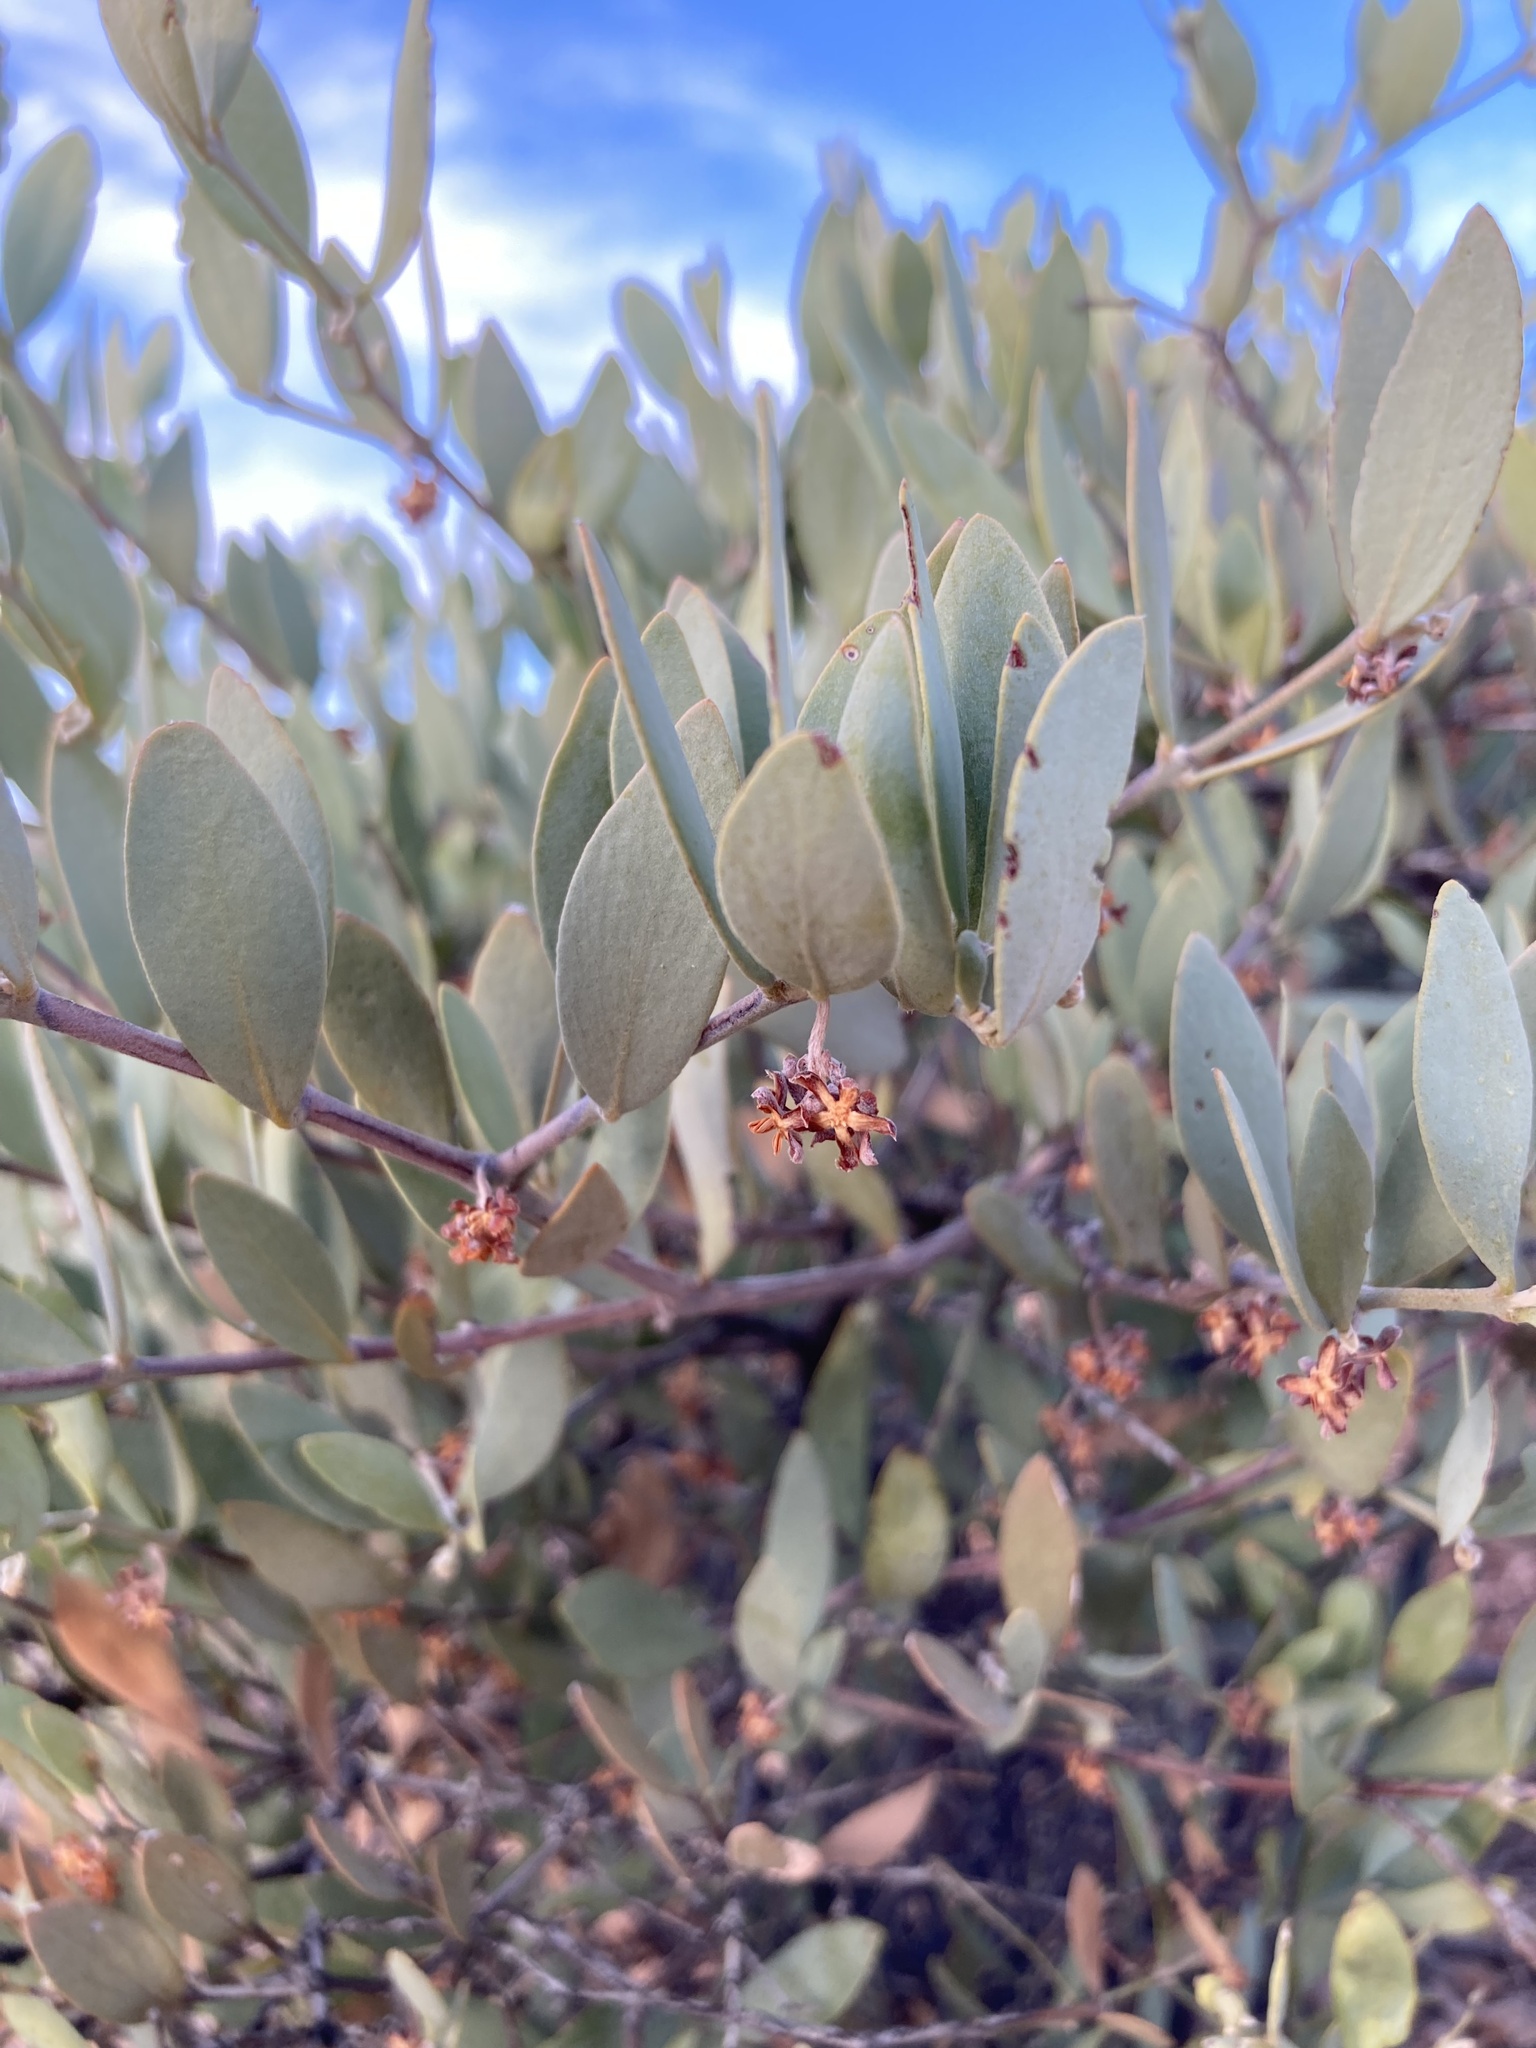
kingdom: Plantae
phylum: Tracheophyta
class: Magnoliopsida
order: Caryophyllales
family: Simmondsiaceae
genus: Simmondsia
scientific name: Simmondsia chinensis
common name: Jojoba
